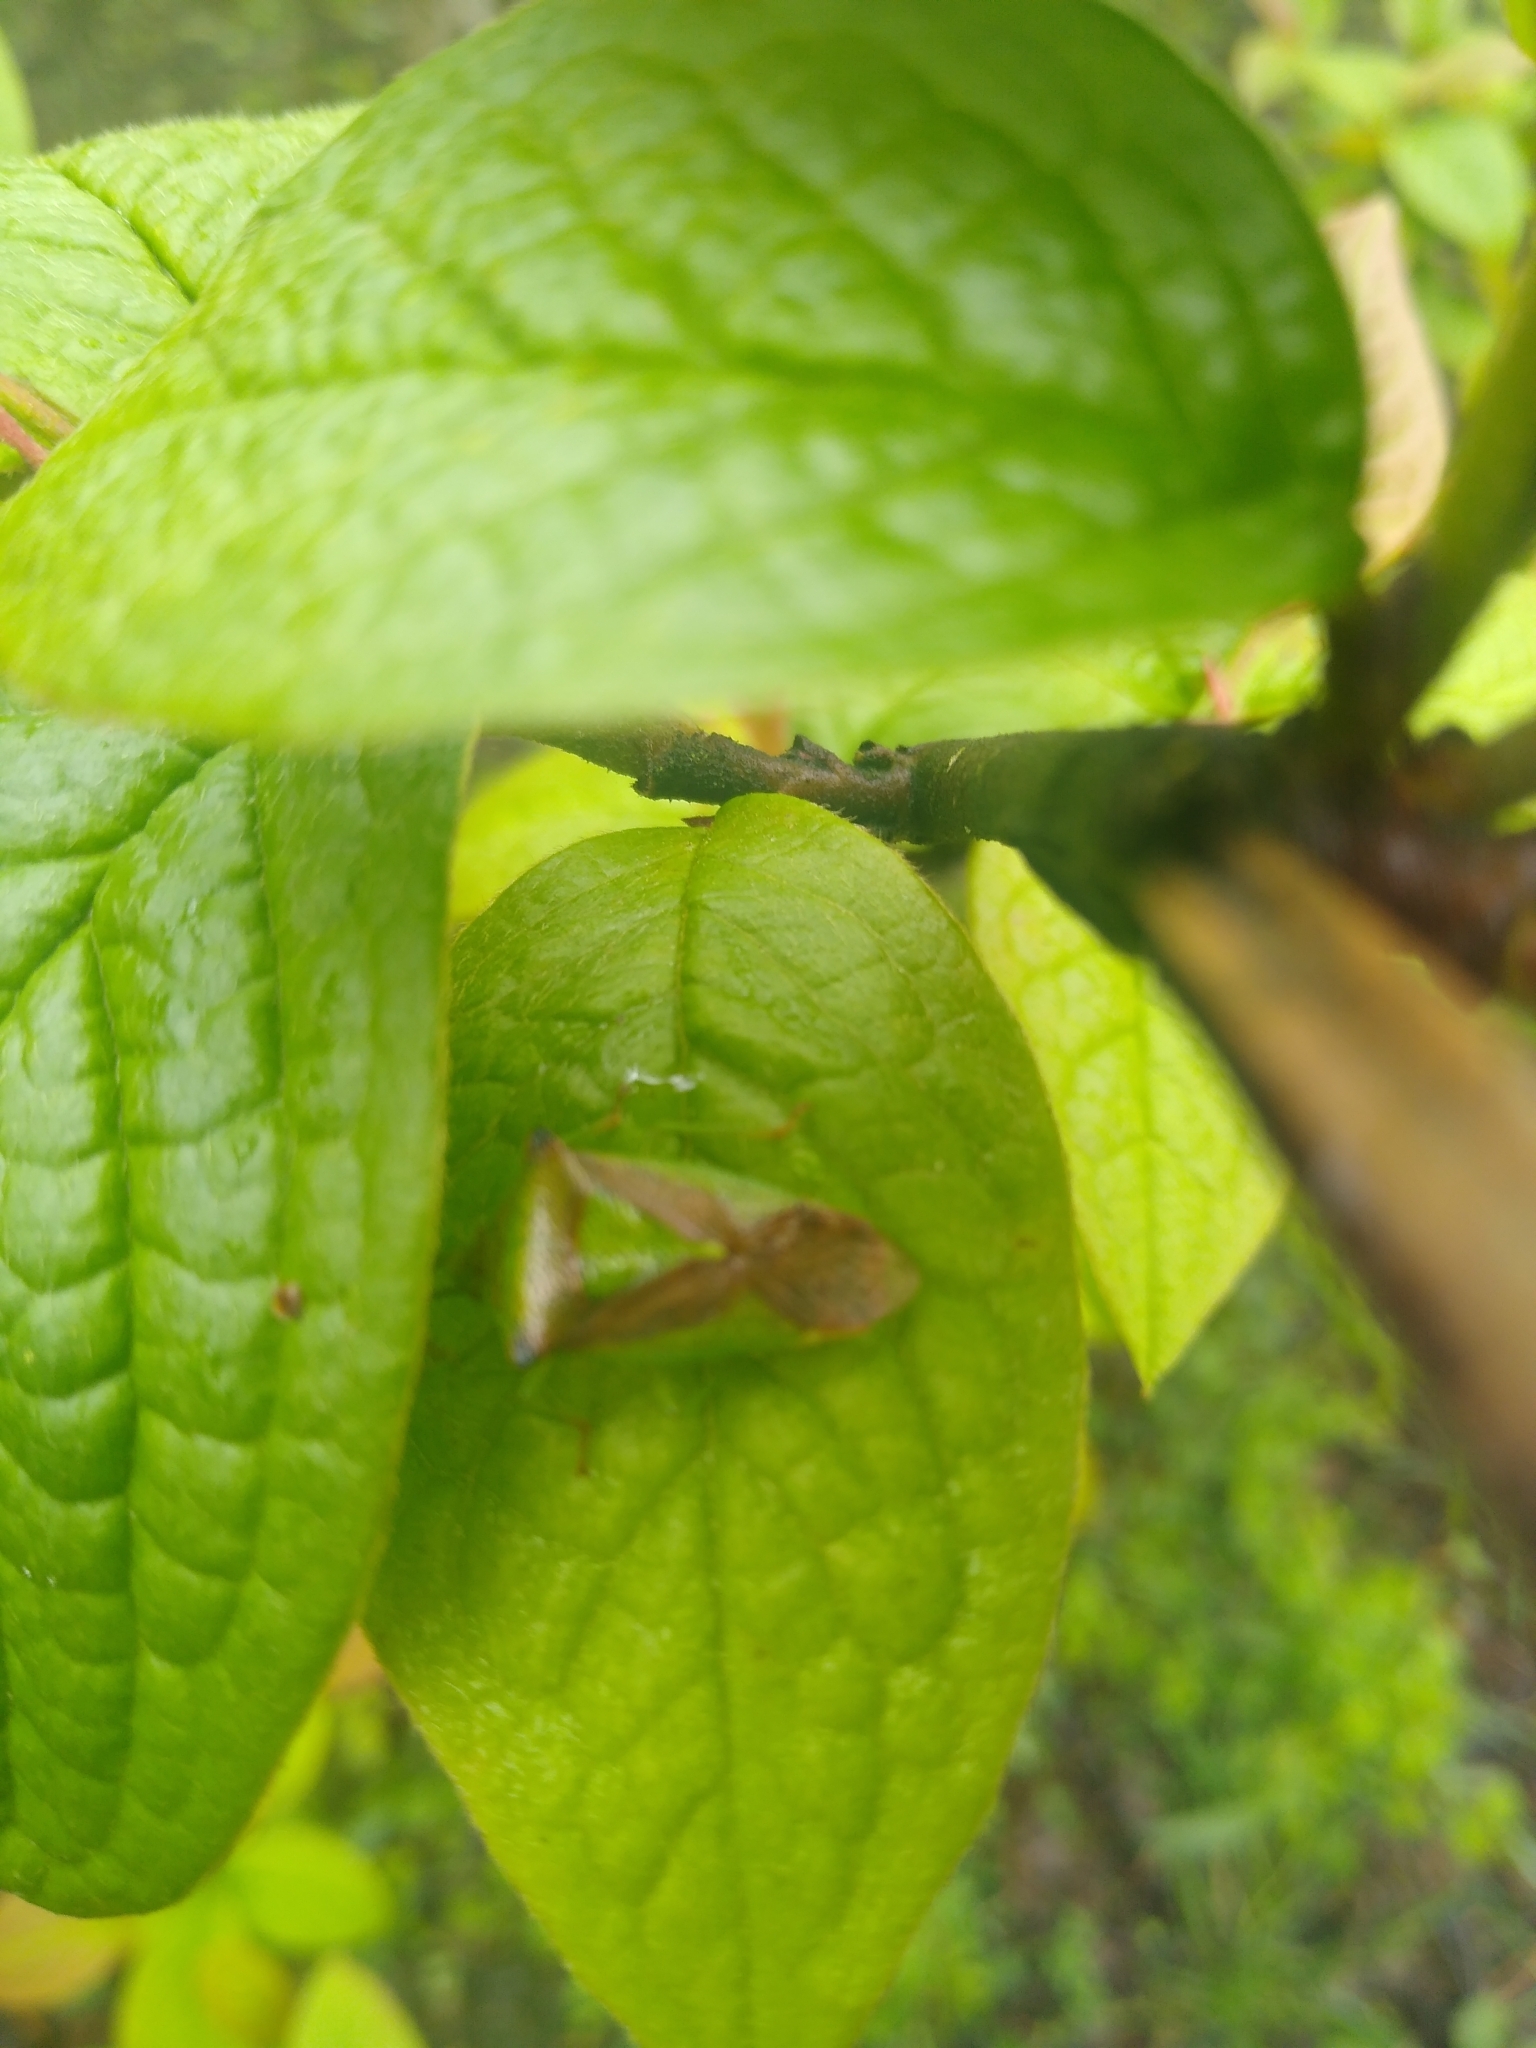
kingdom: Animalia
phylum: Arthropoda
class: Insecta
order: Hemiptera
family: Acanthosomatidae
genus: Acanthosoma
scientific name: Acanthosoma haemorrhoidale
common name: Hawthorn shieldbug
